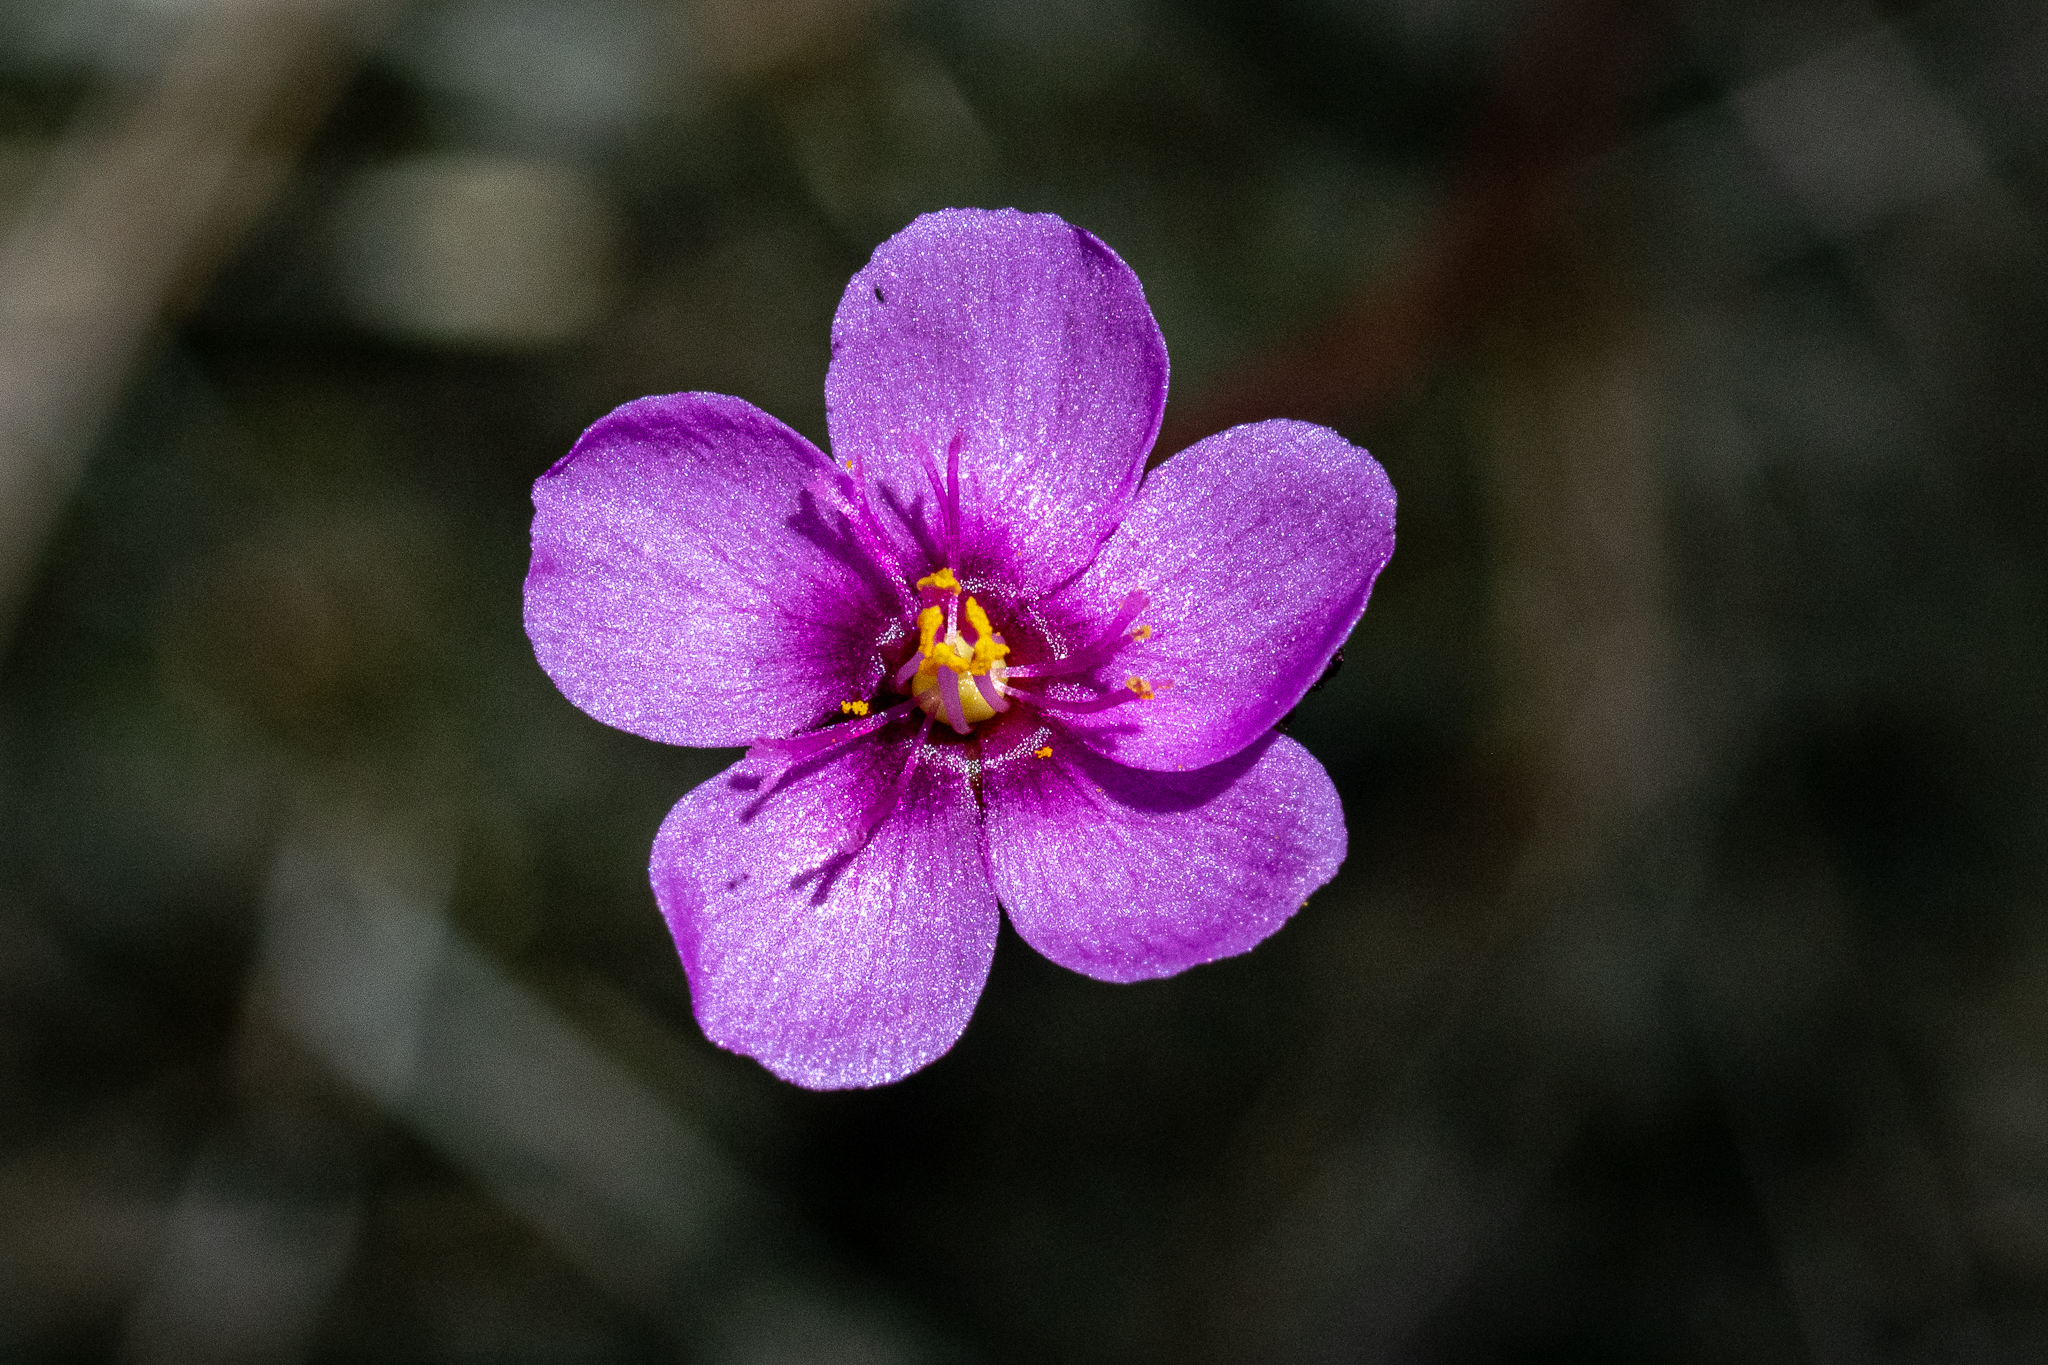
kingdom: Plantae
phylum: Tracheophyta
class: Magnoliopsida
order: Caryophyllales
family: Droseraceae
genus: Drosera
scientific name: Drosera aliciae
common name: Alice sundew
